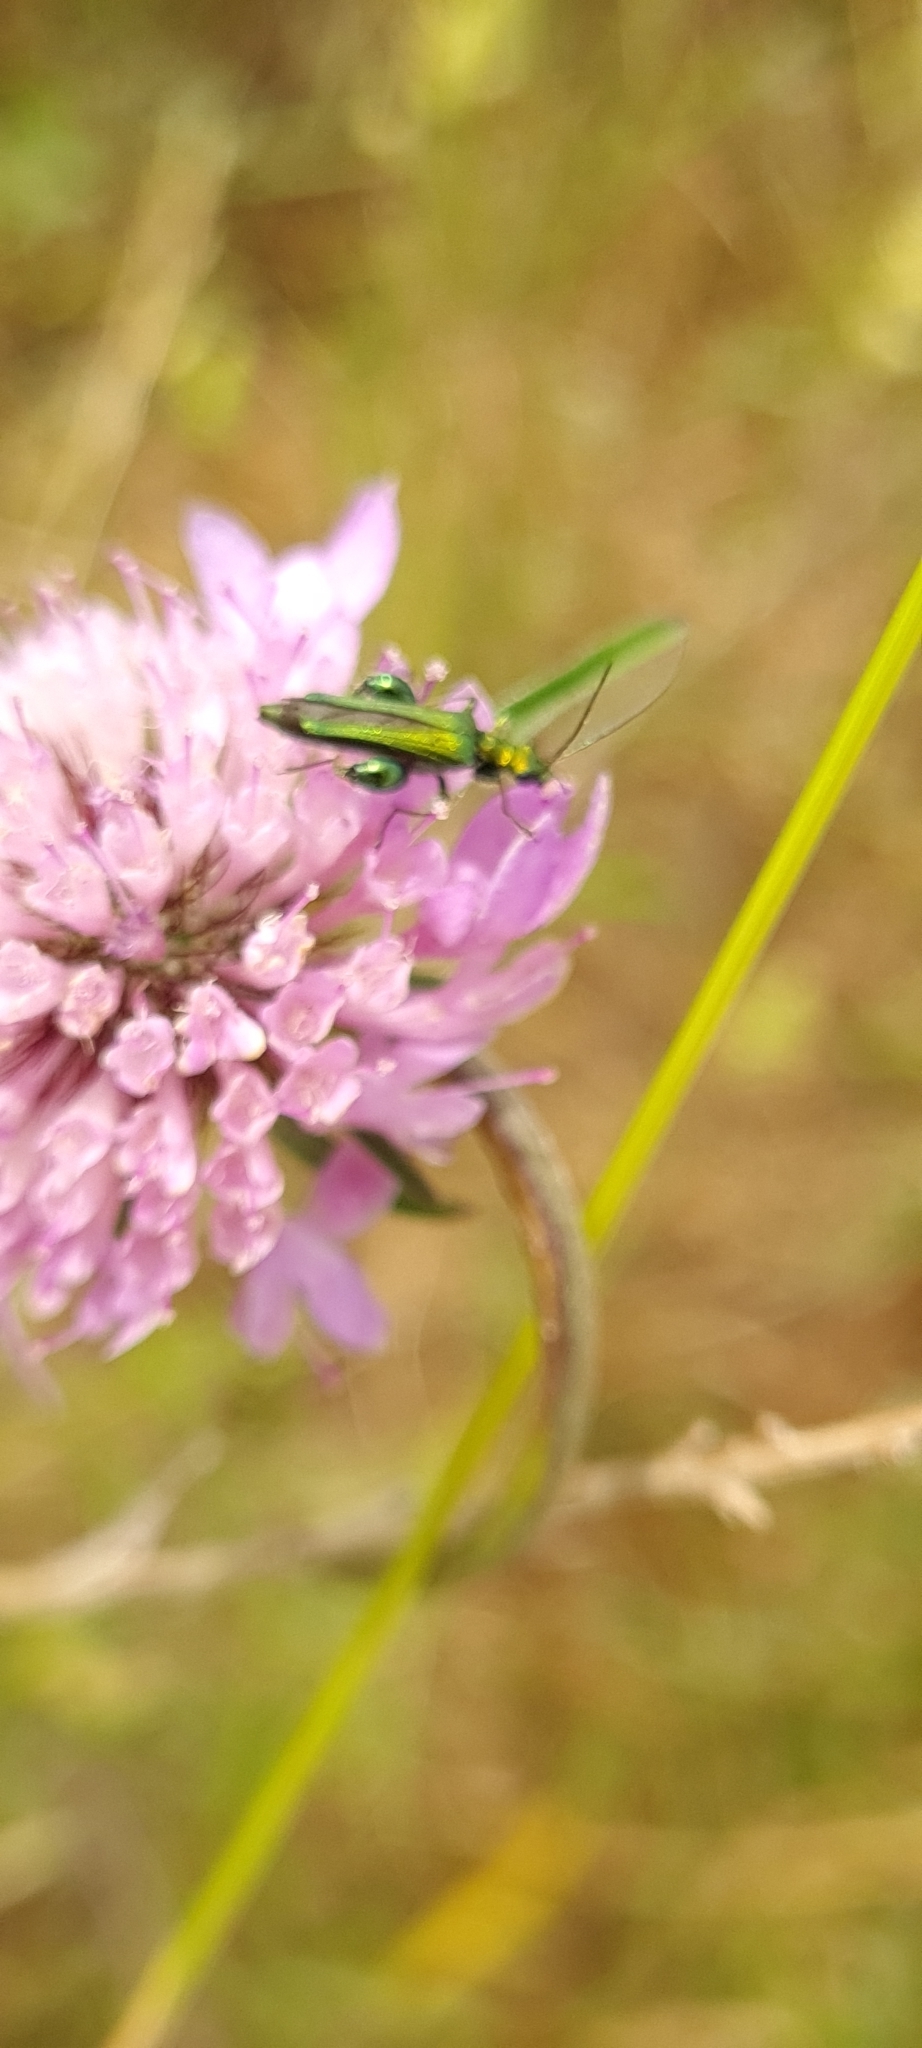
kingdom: Animalia
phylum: Arthropoda
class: Insecta
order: Coleoptera
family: Oedemeridae
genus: Oedemera
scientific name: Oedemera nobilis
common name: Swollen-thighed beetle
